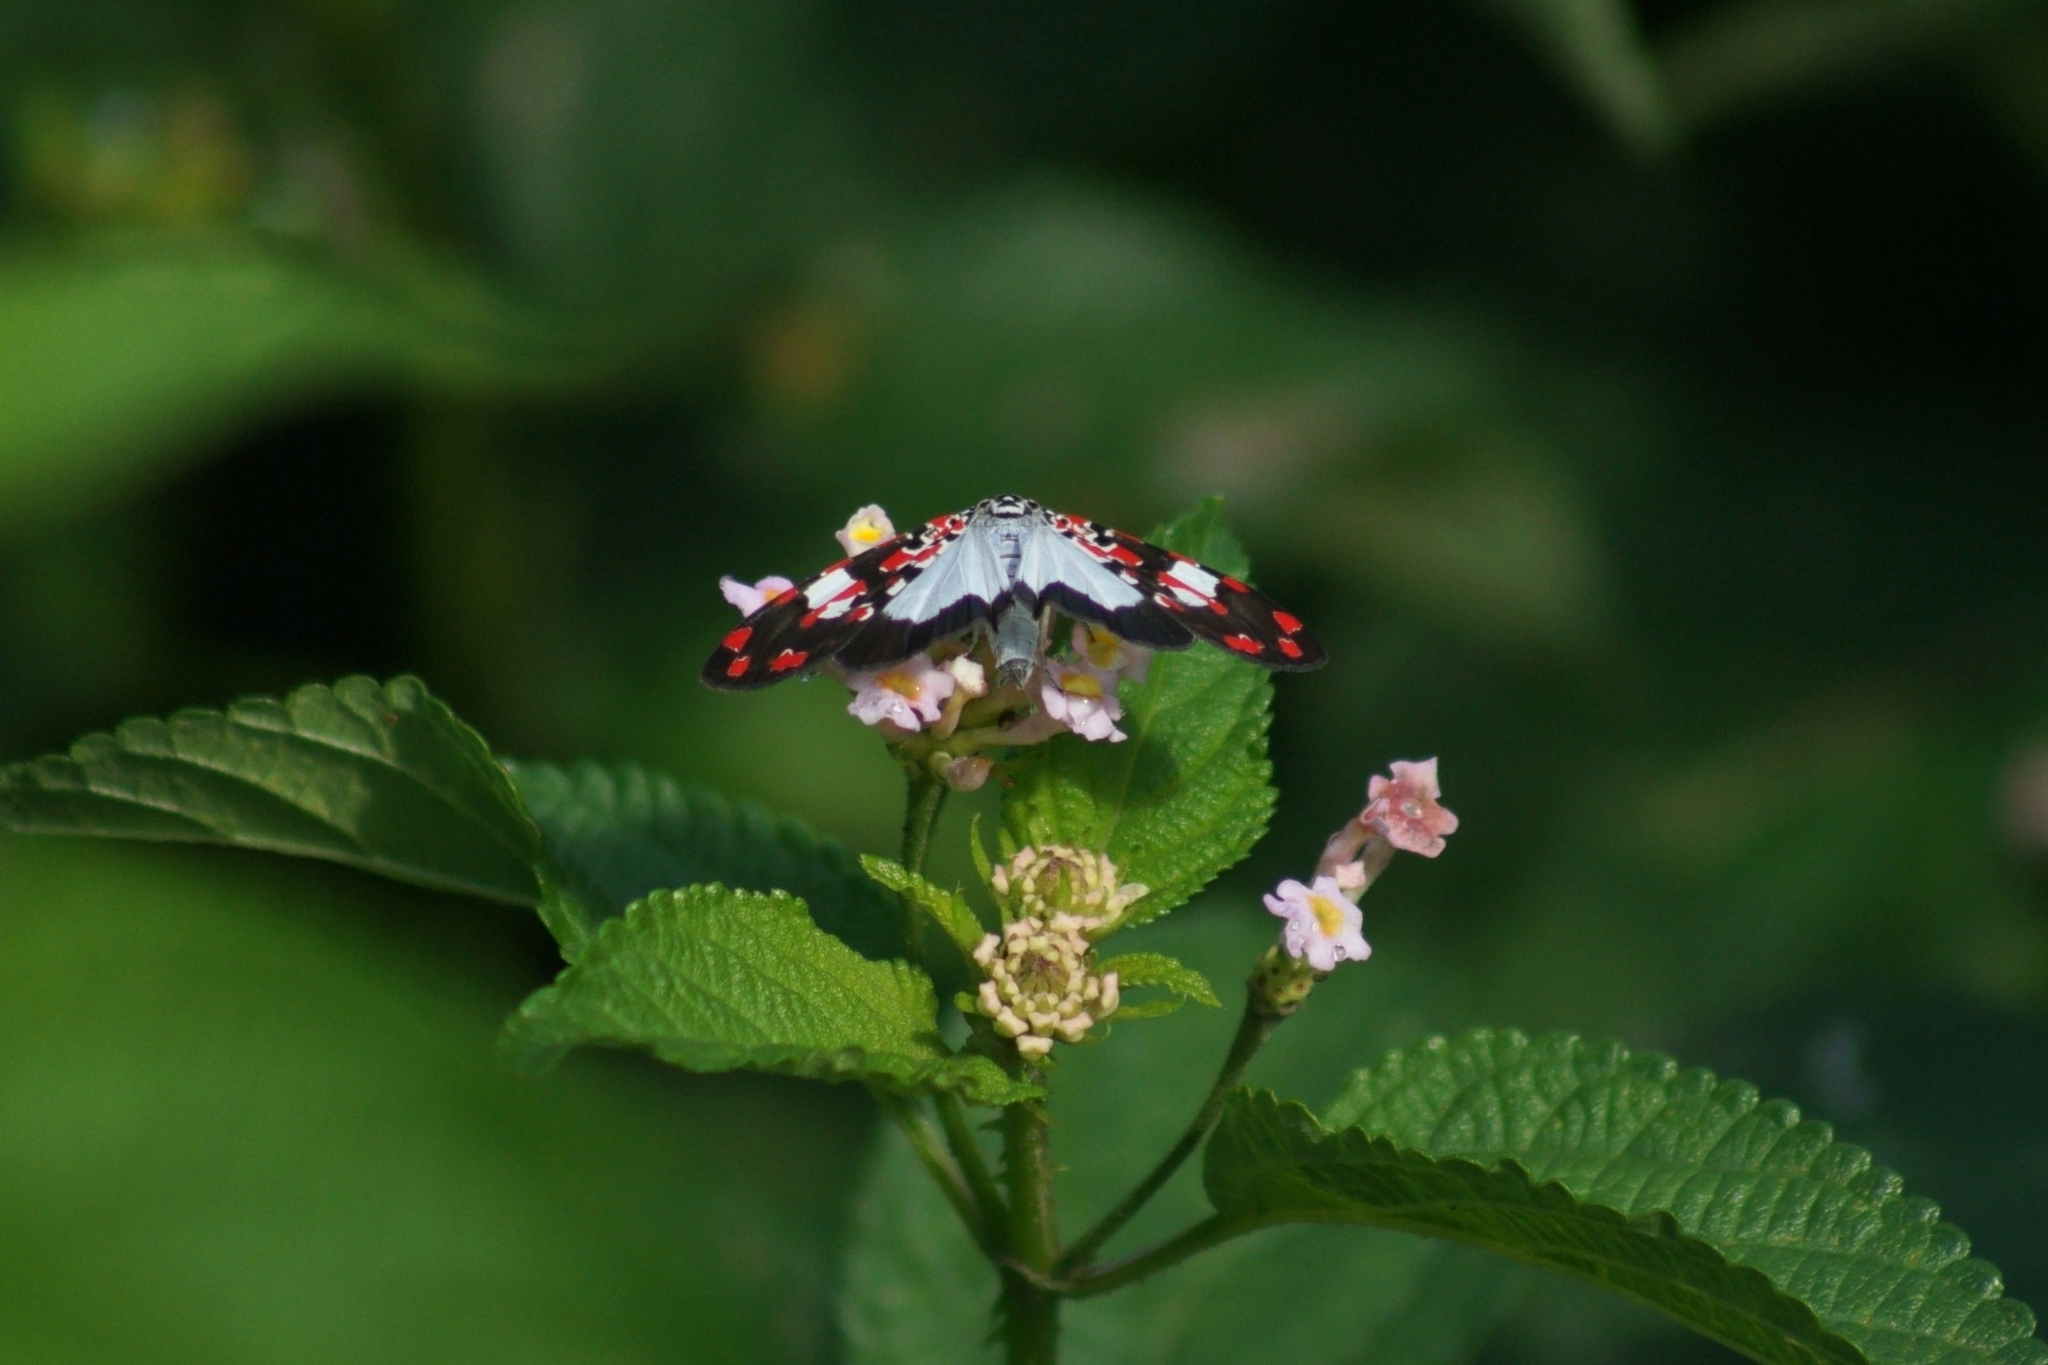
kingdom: Animalia
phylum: Arthropoda
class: Insecta
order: Lepidoptera
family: Erebidae
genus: Utetheisa
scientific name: Utetheisa elata
